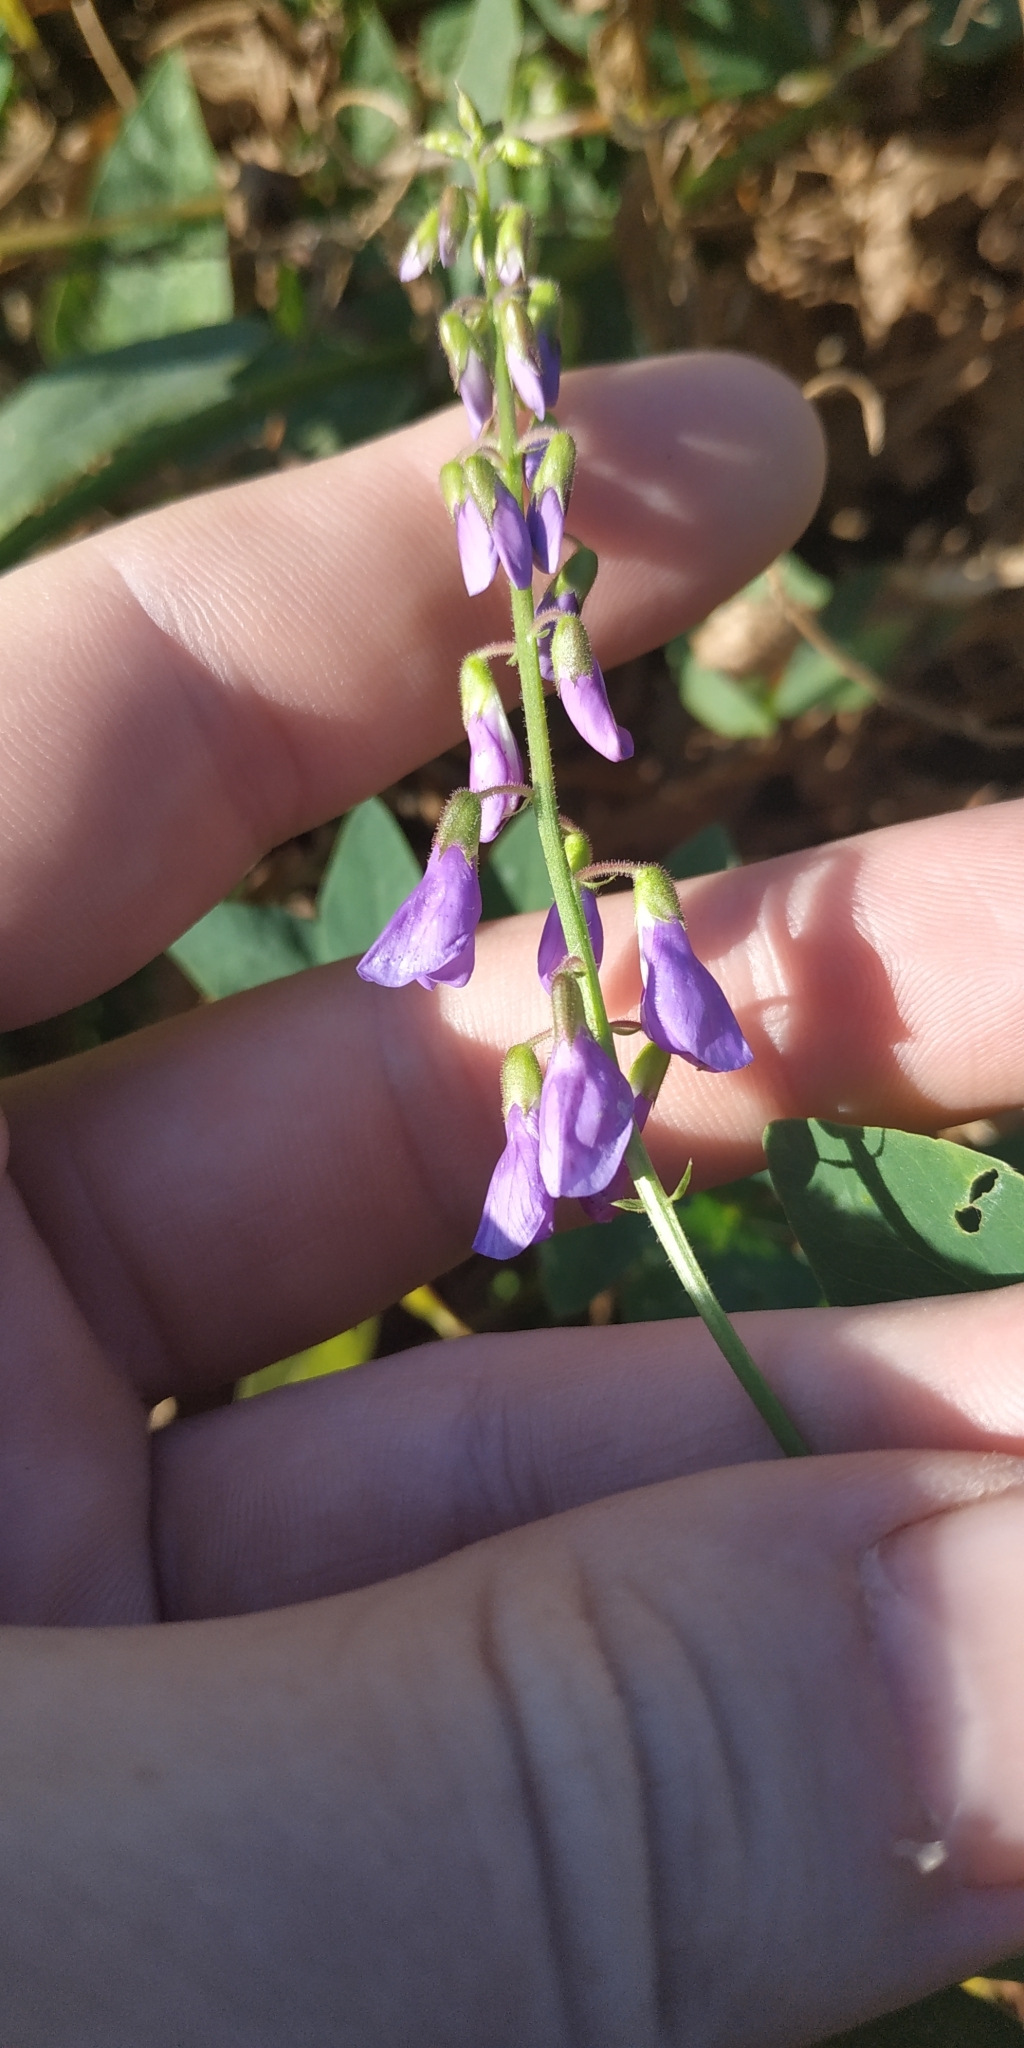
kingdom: Plantae
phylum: Tracheophyta
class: Magnoliopsida
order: Fabales
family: Fabaceae
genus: Galega
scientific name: Galega orientalis
